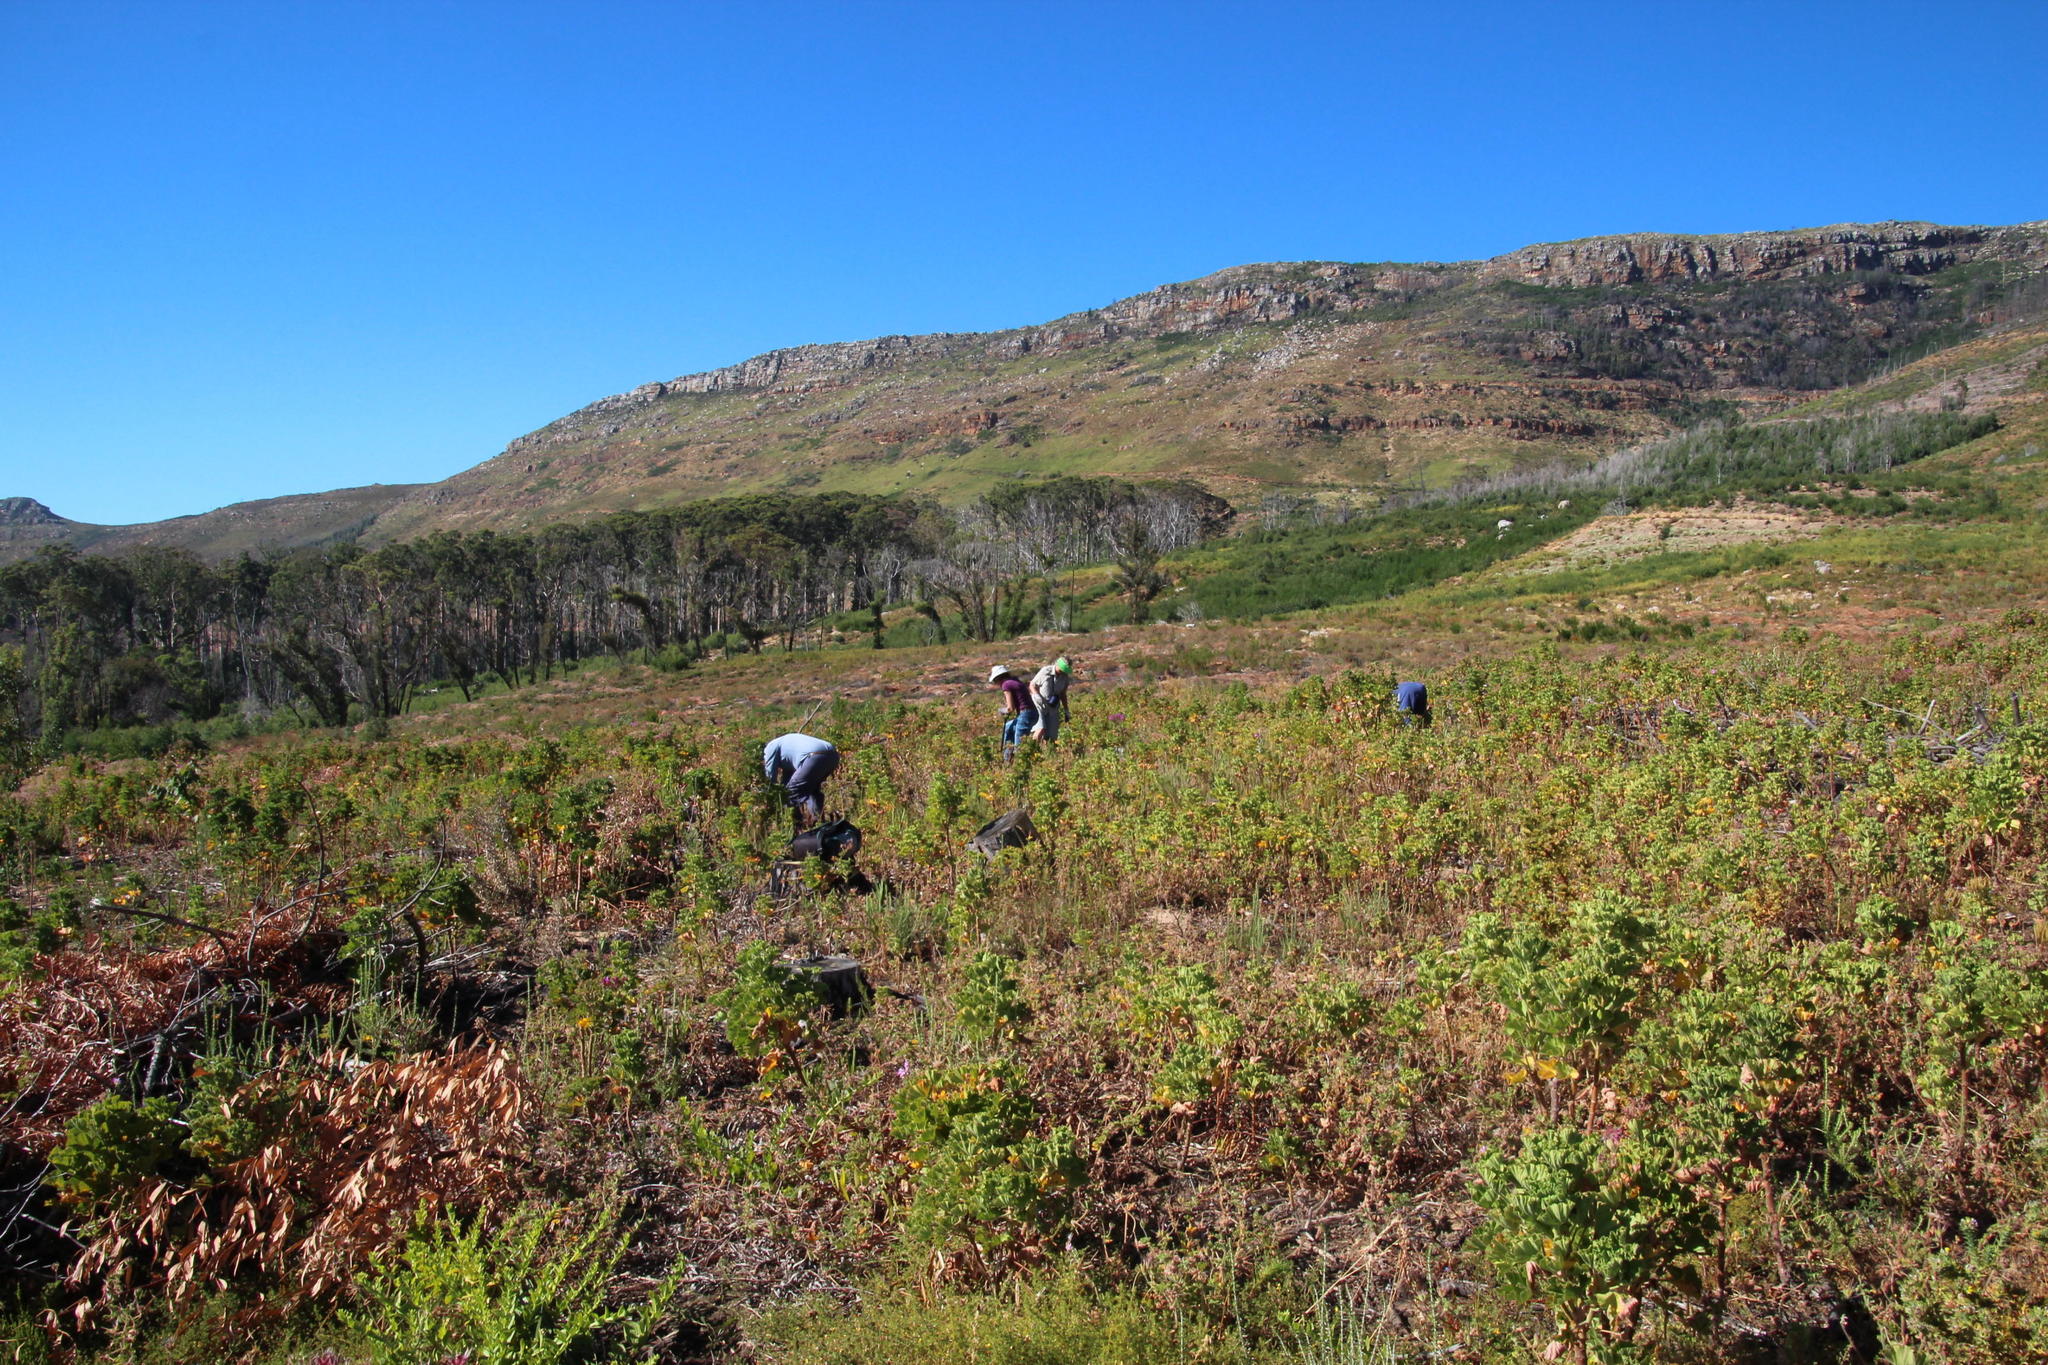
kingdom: Plantae
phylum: Tracheophyta
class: Magnoliopsida
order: Geraniales
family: Geraniaceae
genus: Pelargonium
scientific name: Pelargonium cucullatum
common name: Tree pelargonium
